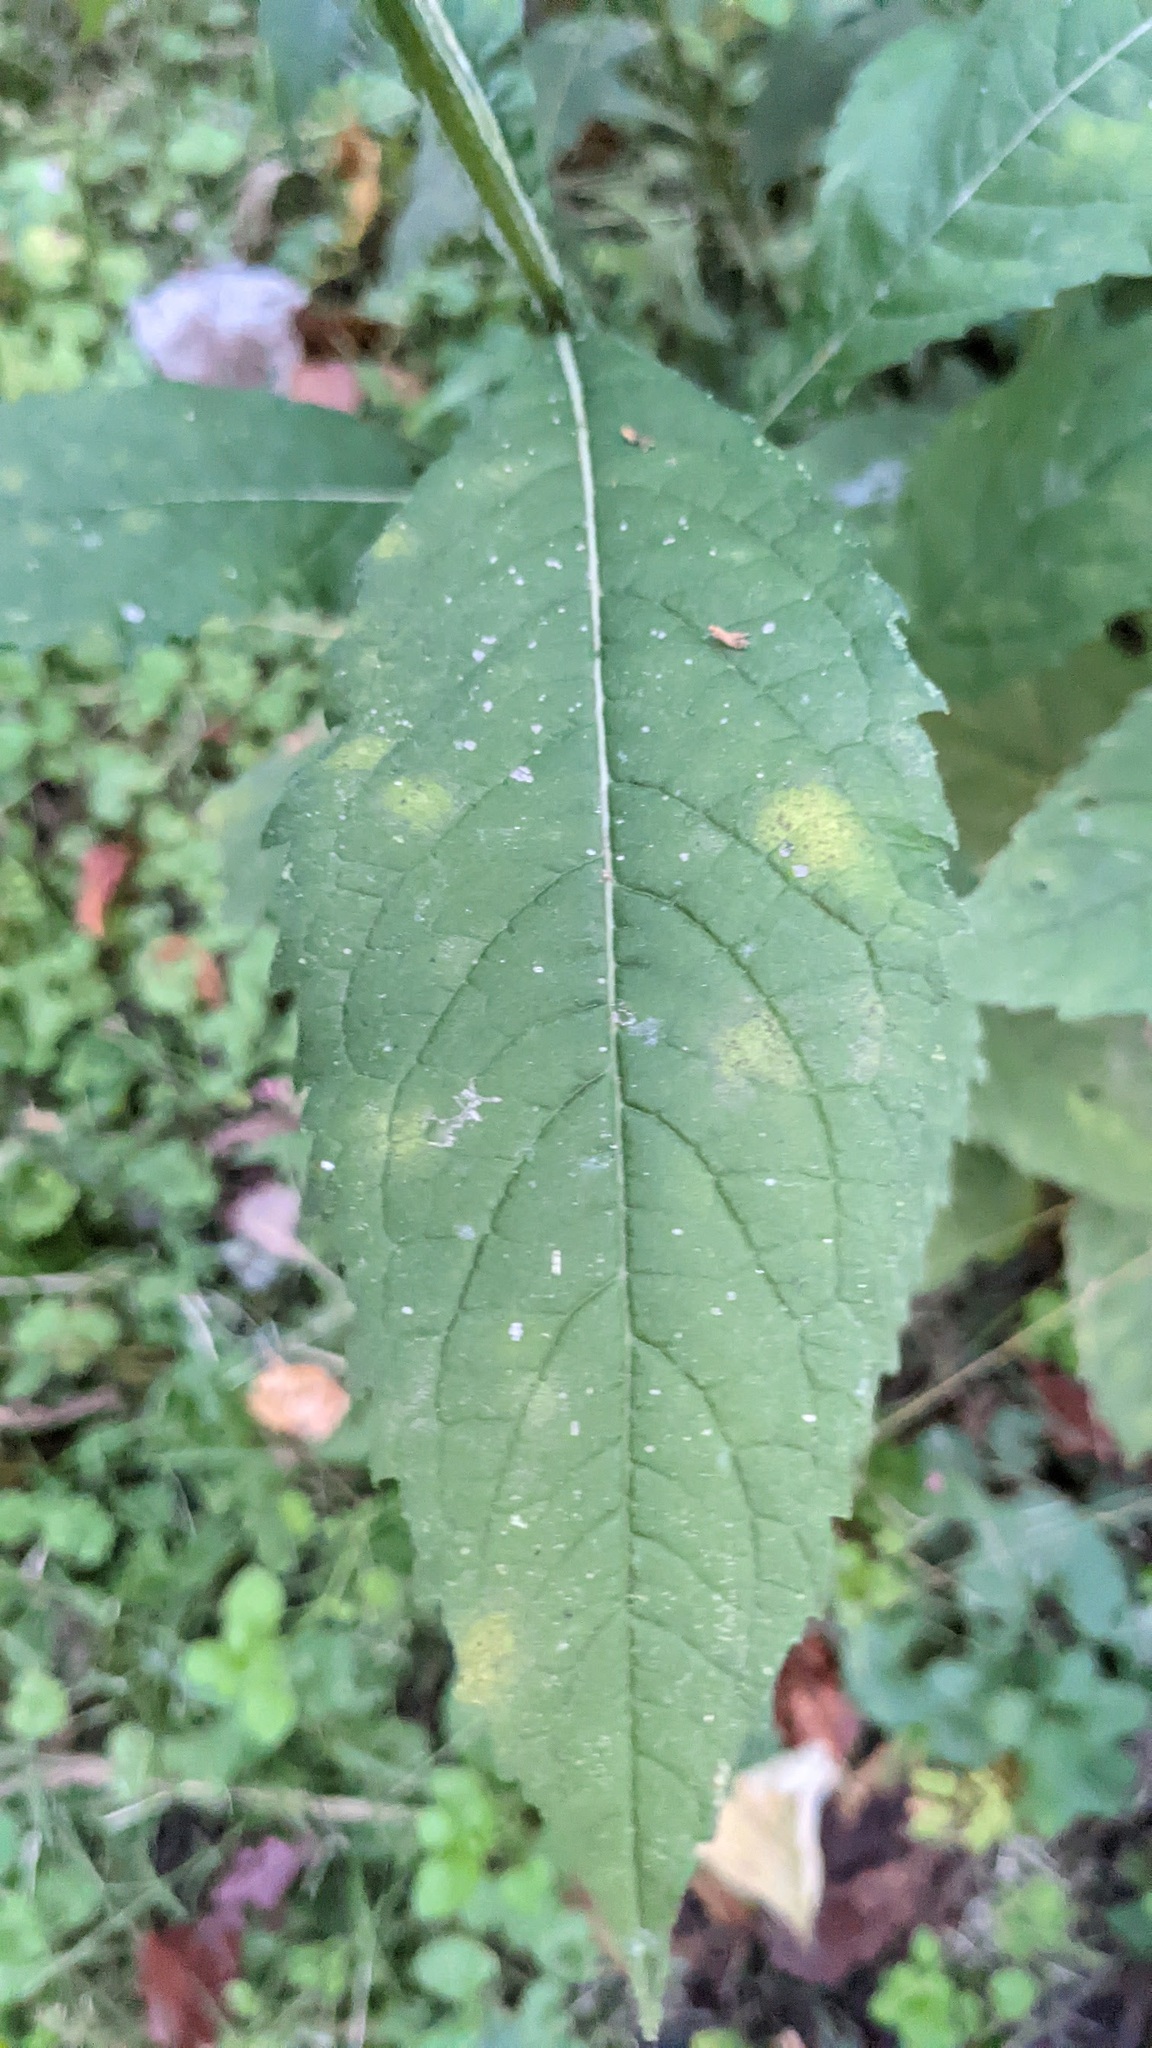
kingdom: Plantae
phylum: Tracheophyta
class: Magnoliopsida
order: Asterales
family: Asteraceae
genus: Verbesina
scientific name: Verbesina alternifolia
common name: Wingstem
